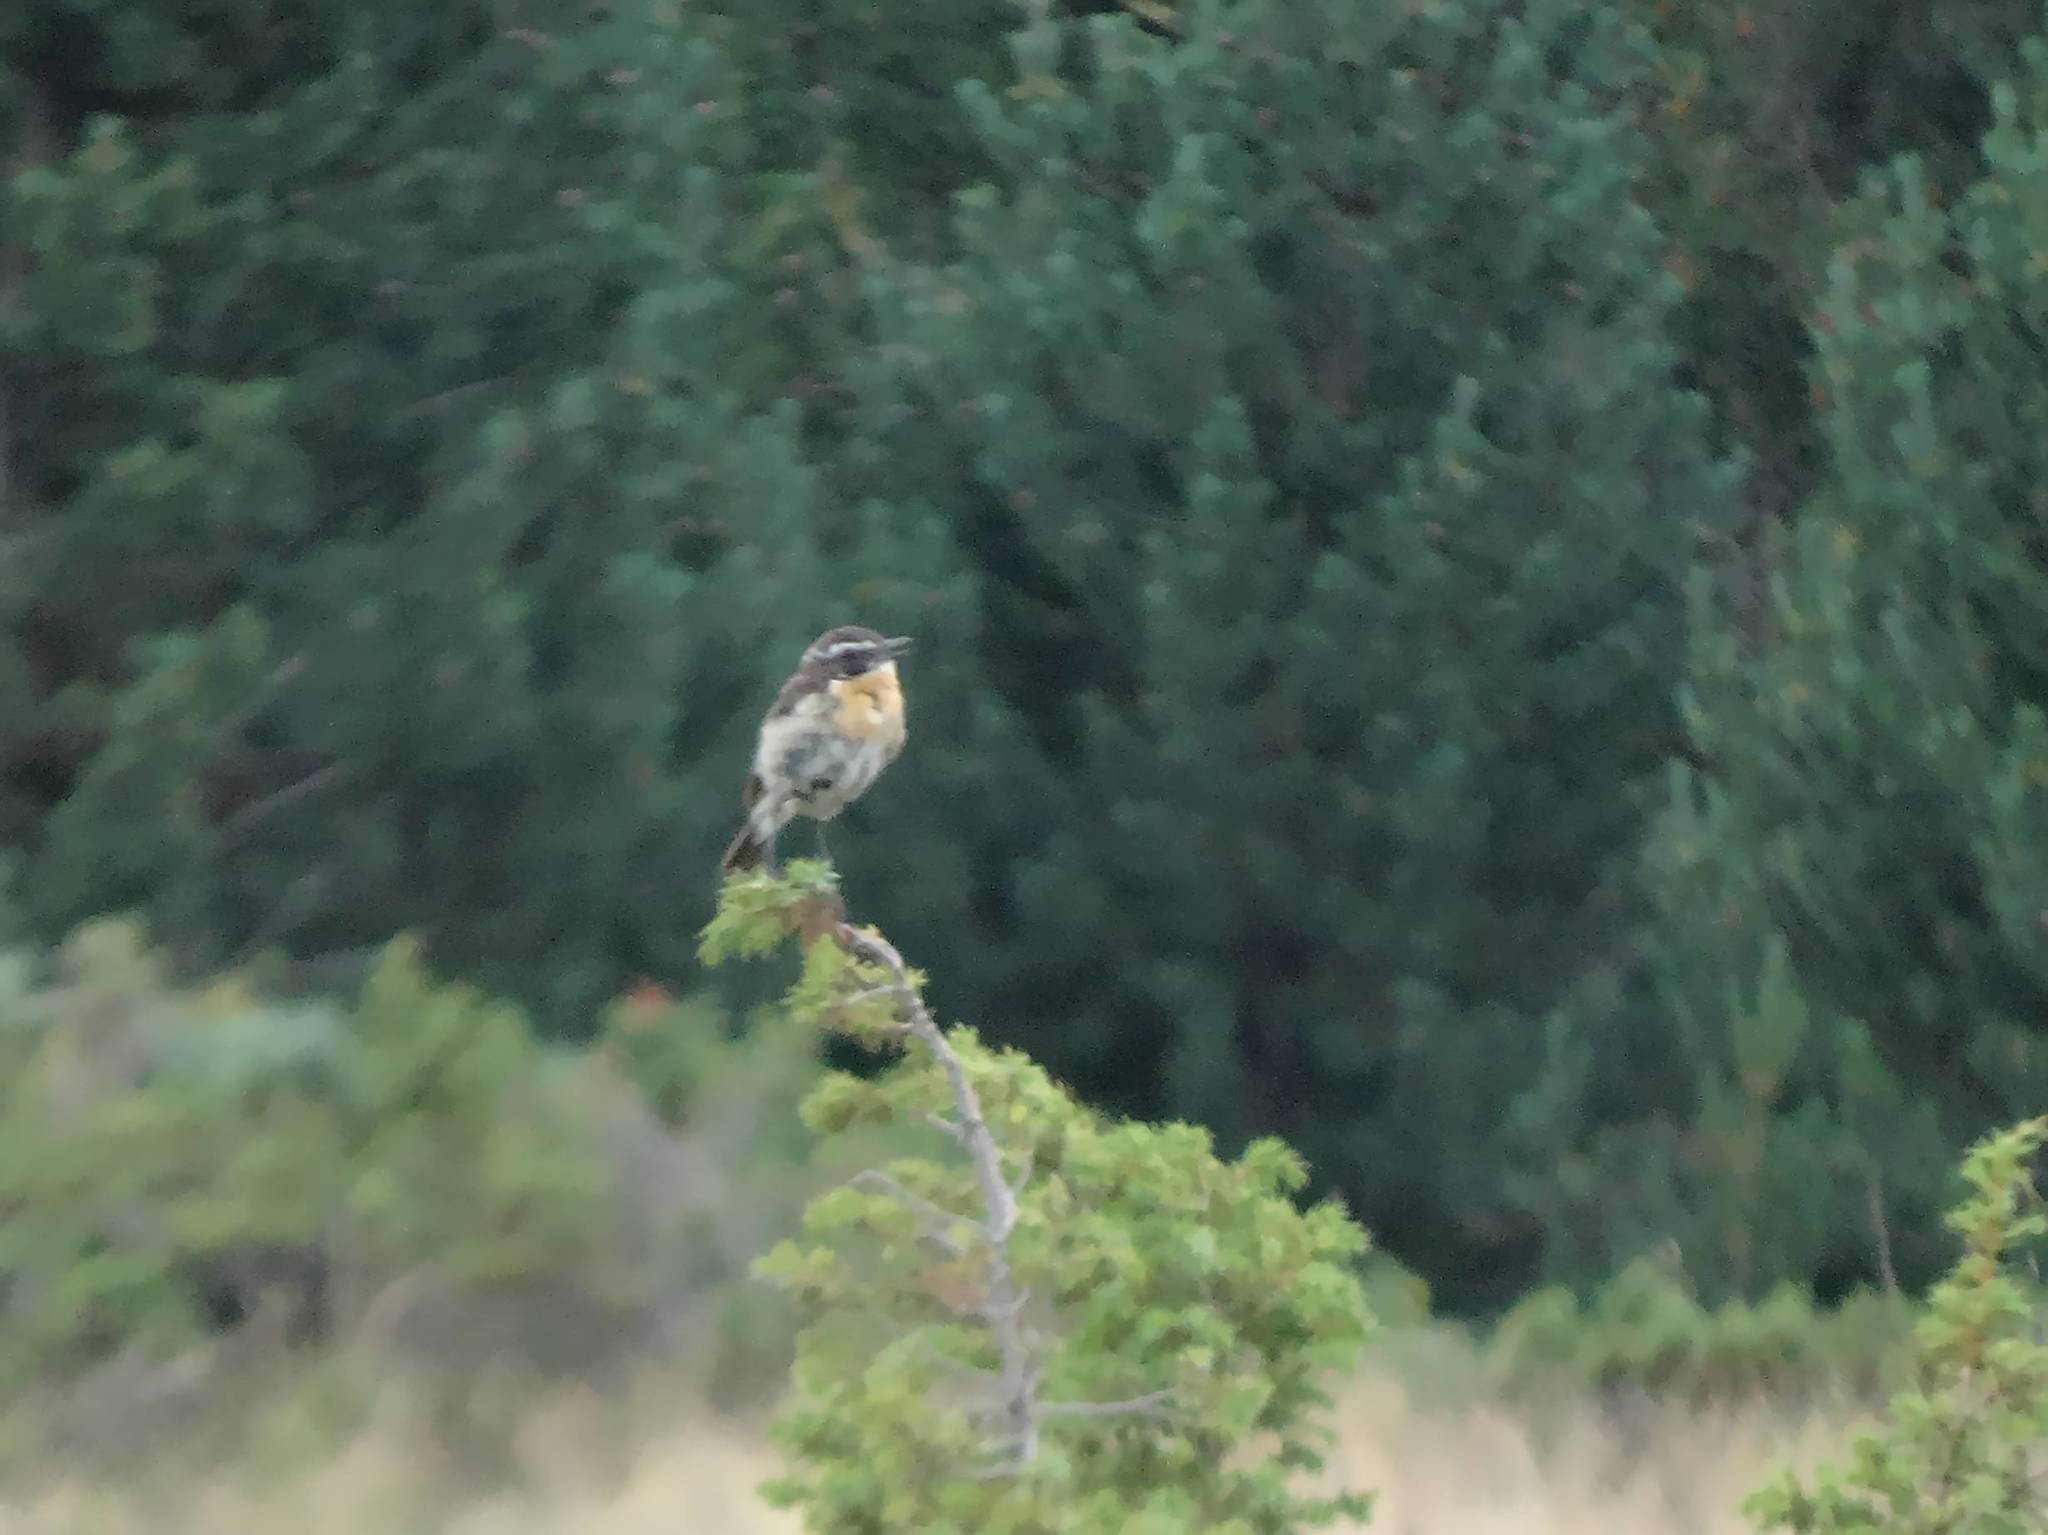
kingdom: Animalia
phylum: Chordata
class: Aves
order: Passeriformes
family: Muscicapidae
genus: Saxicola
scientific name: Saxicola rubetra
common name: Whinchat
